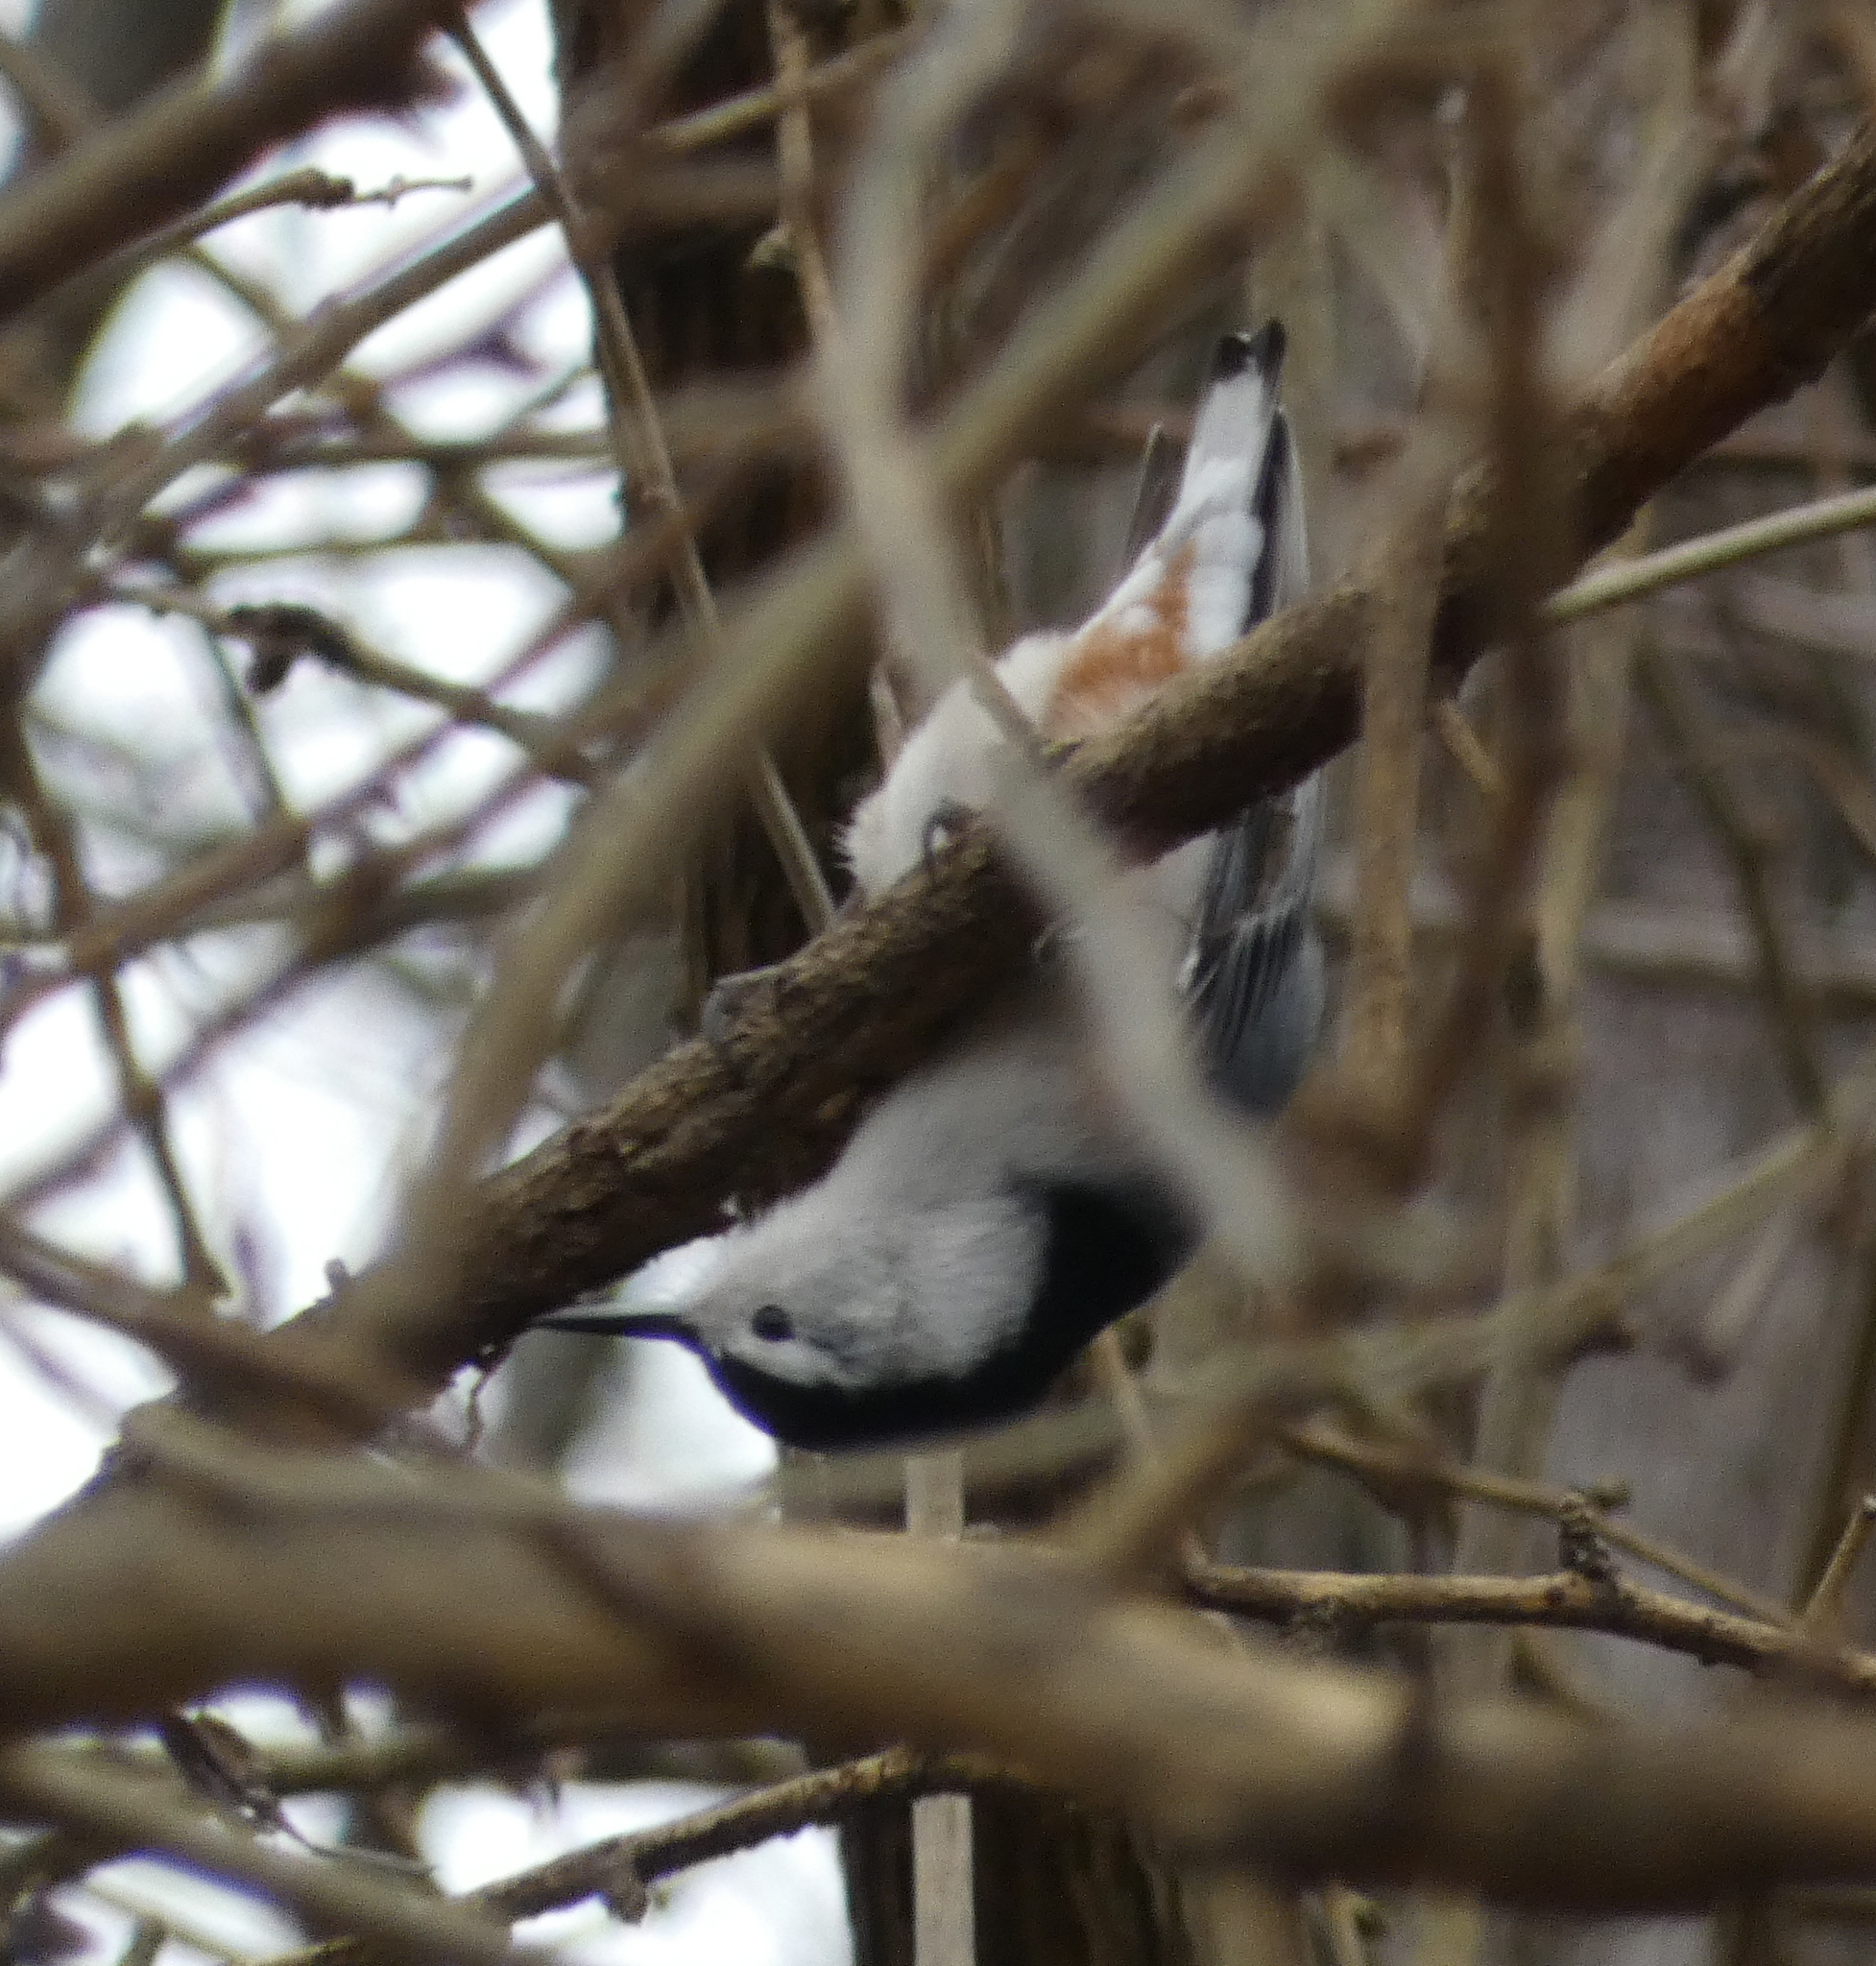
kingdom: Animalia
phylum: Chordata
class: Aves
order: Passeriformes
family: Sittidae
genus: Sitta
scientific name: Sitta carolinensis
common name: White-breasted nuthatch
